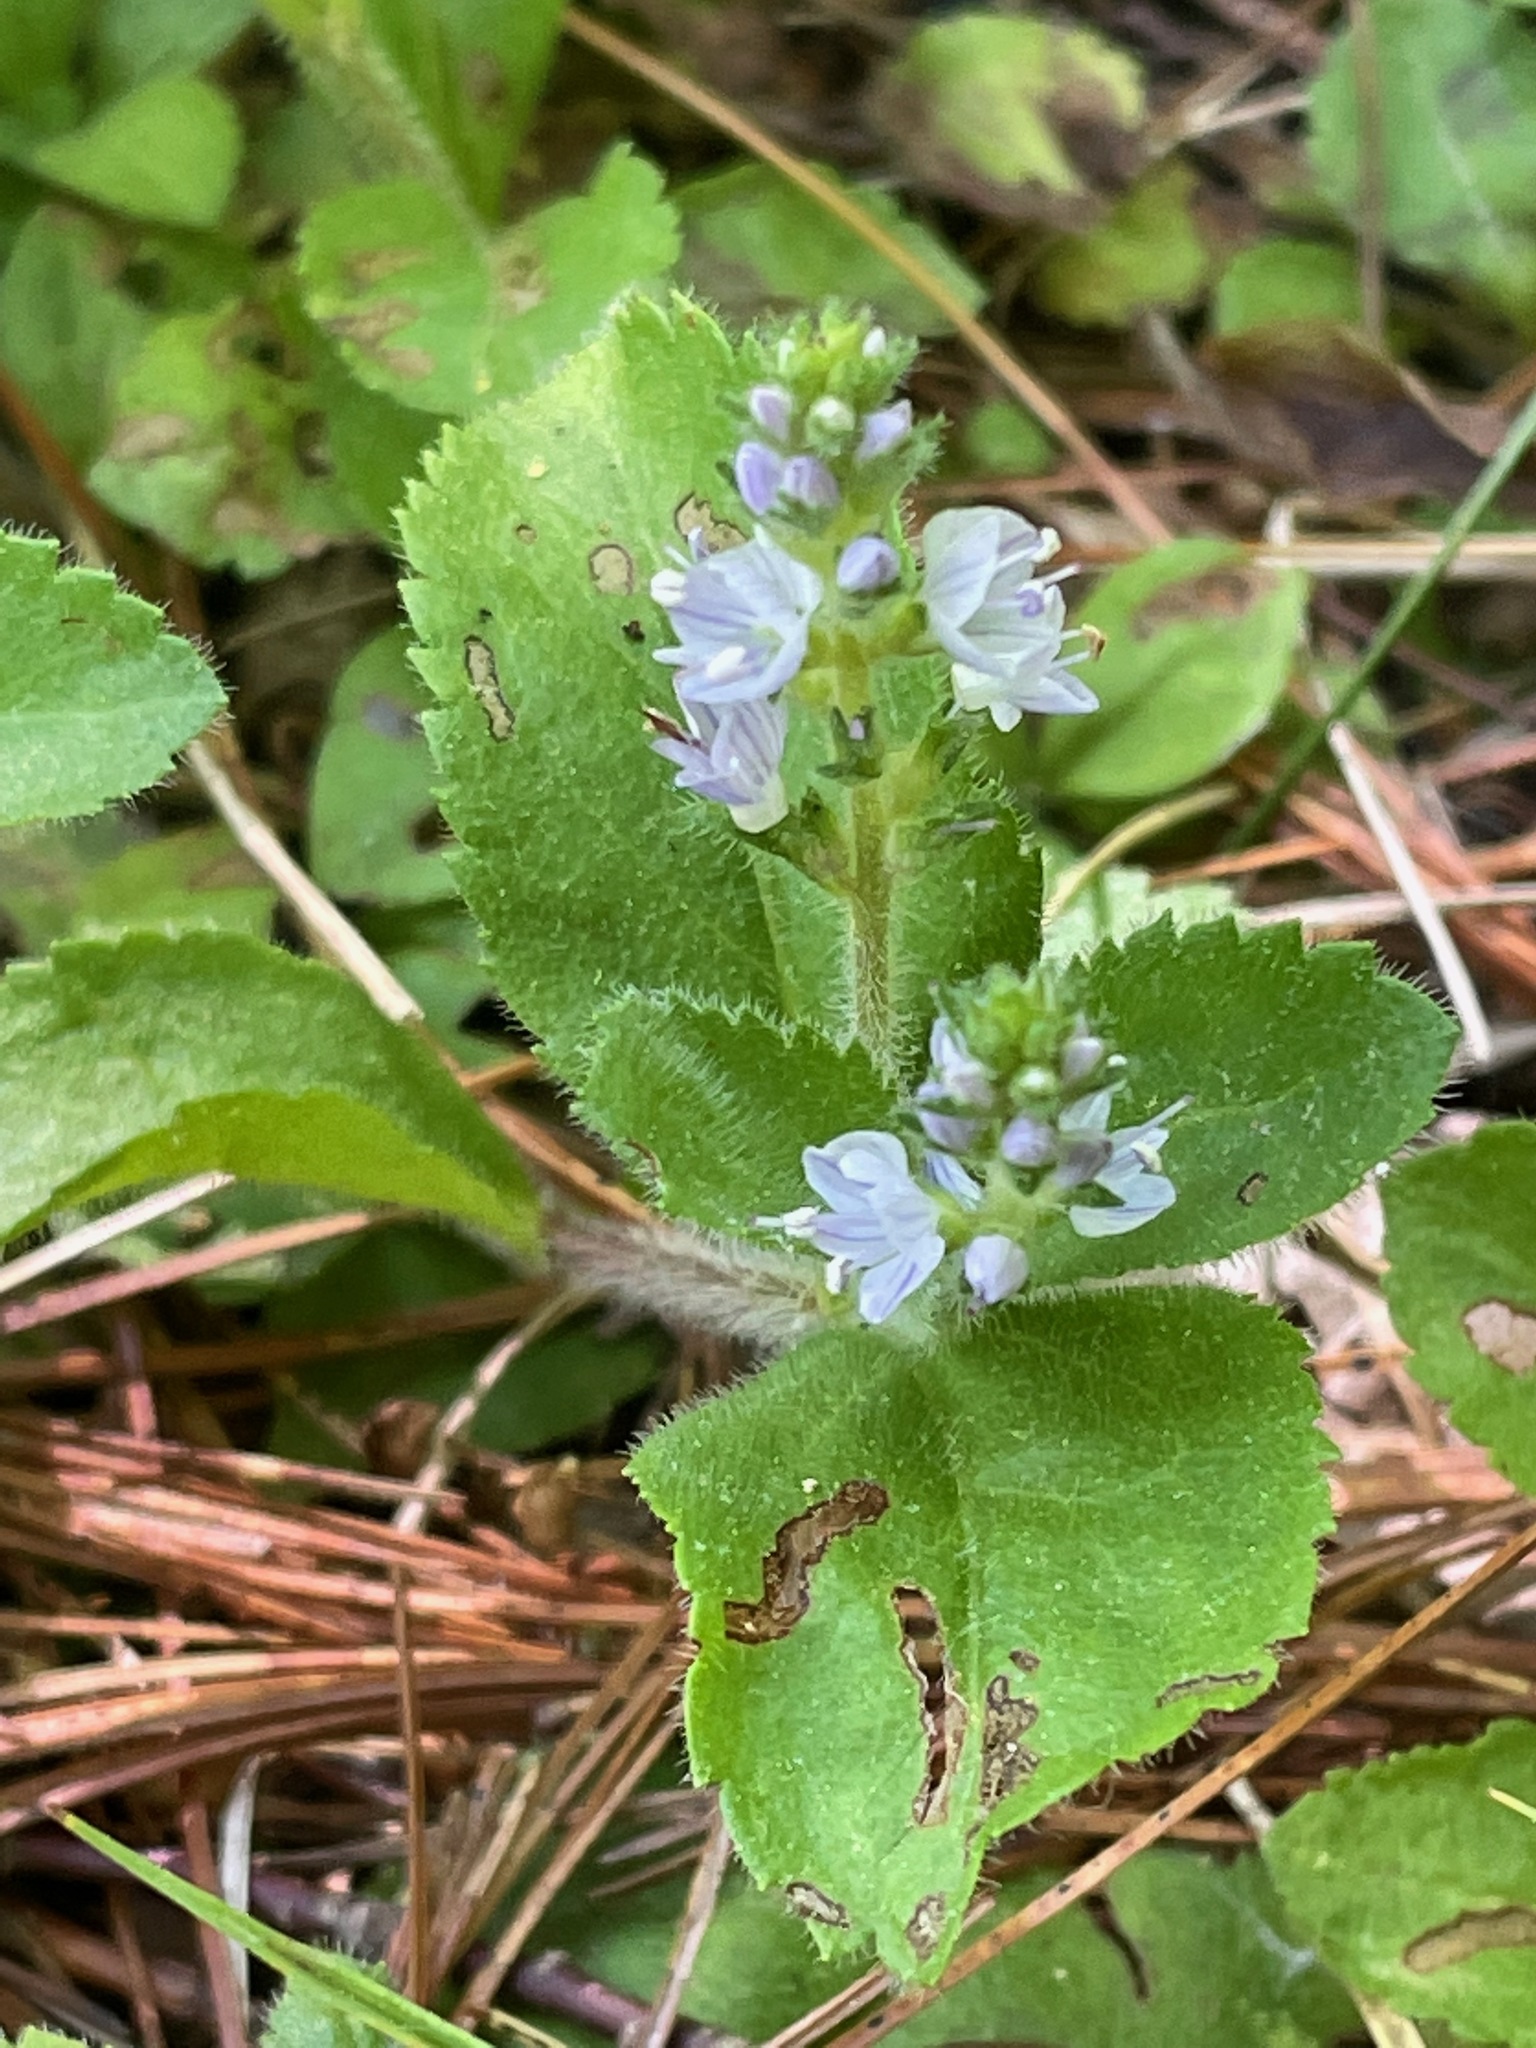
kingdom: Plantae
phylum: Tracheophyta
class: Magnoliopsida
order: Lamiales
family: Plantaginaceae
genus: Veronica
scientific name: Veronica officinalis
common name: Common speedwell
